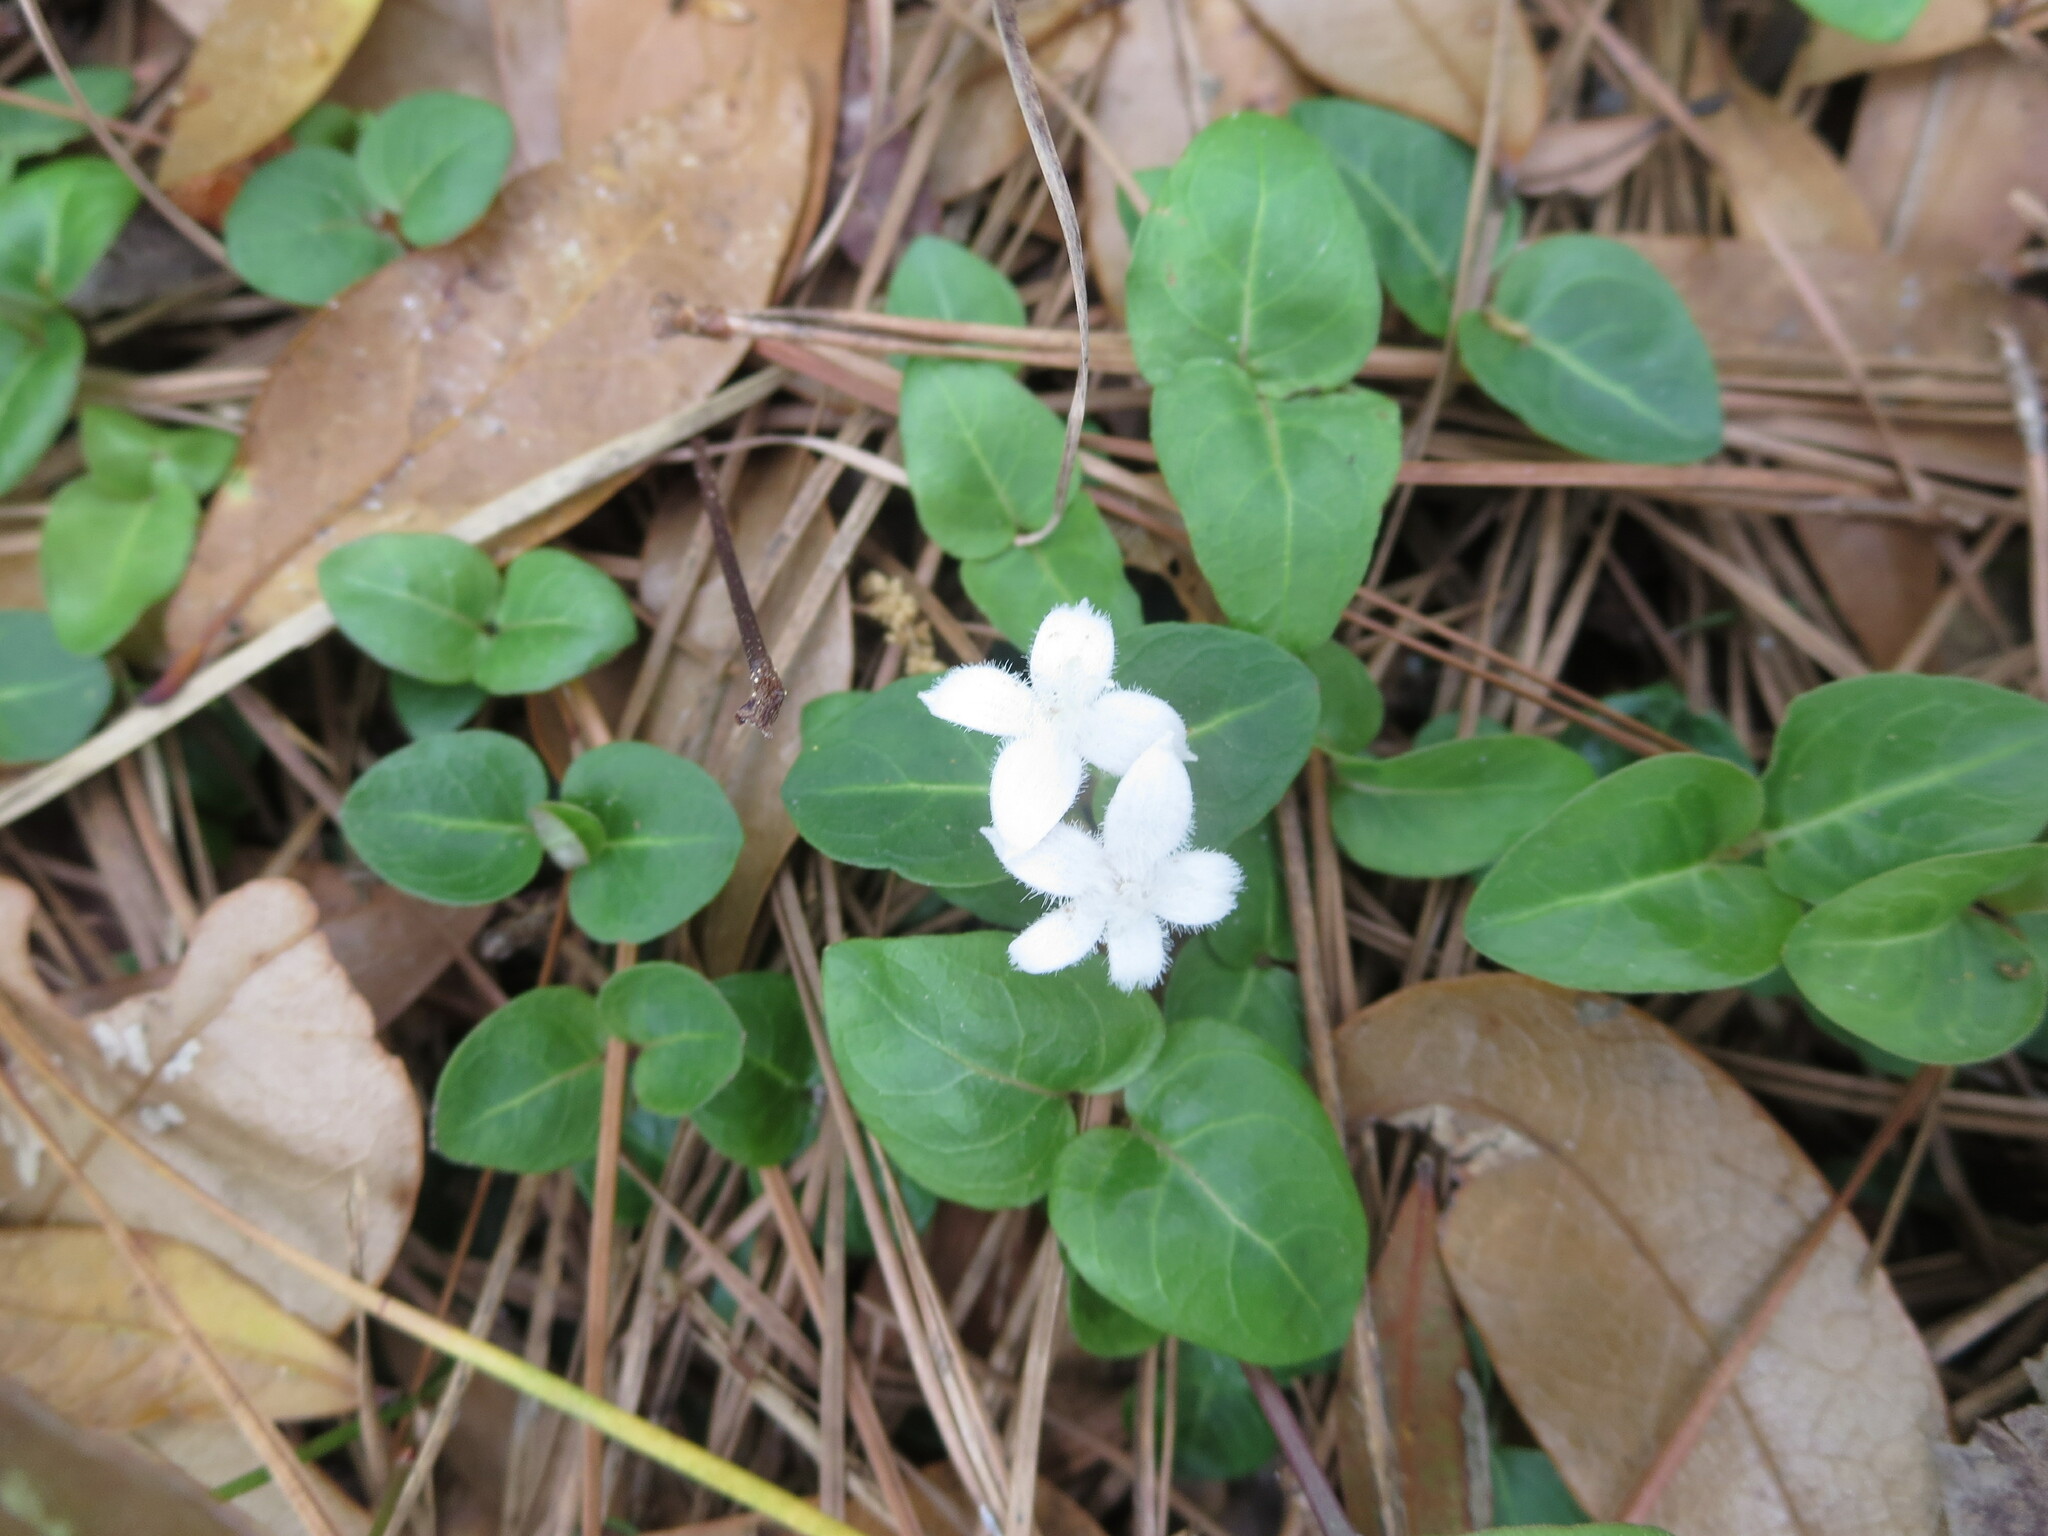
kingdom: Plantae
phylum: Tracheophyta
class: Magnoliopsida
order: Gentianales
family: Rubiaceae
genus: Mitchella
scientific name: Mitchella repens
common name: Partridge-berry
